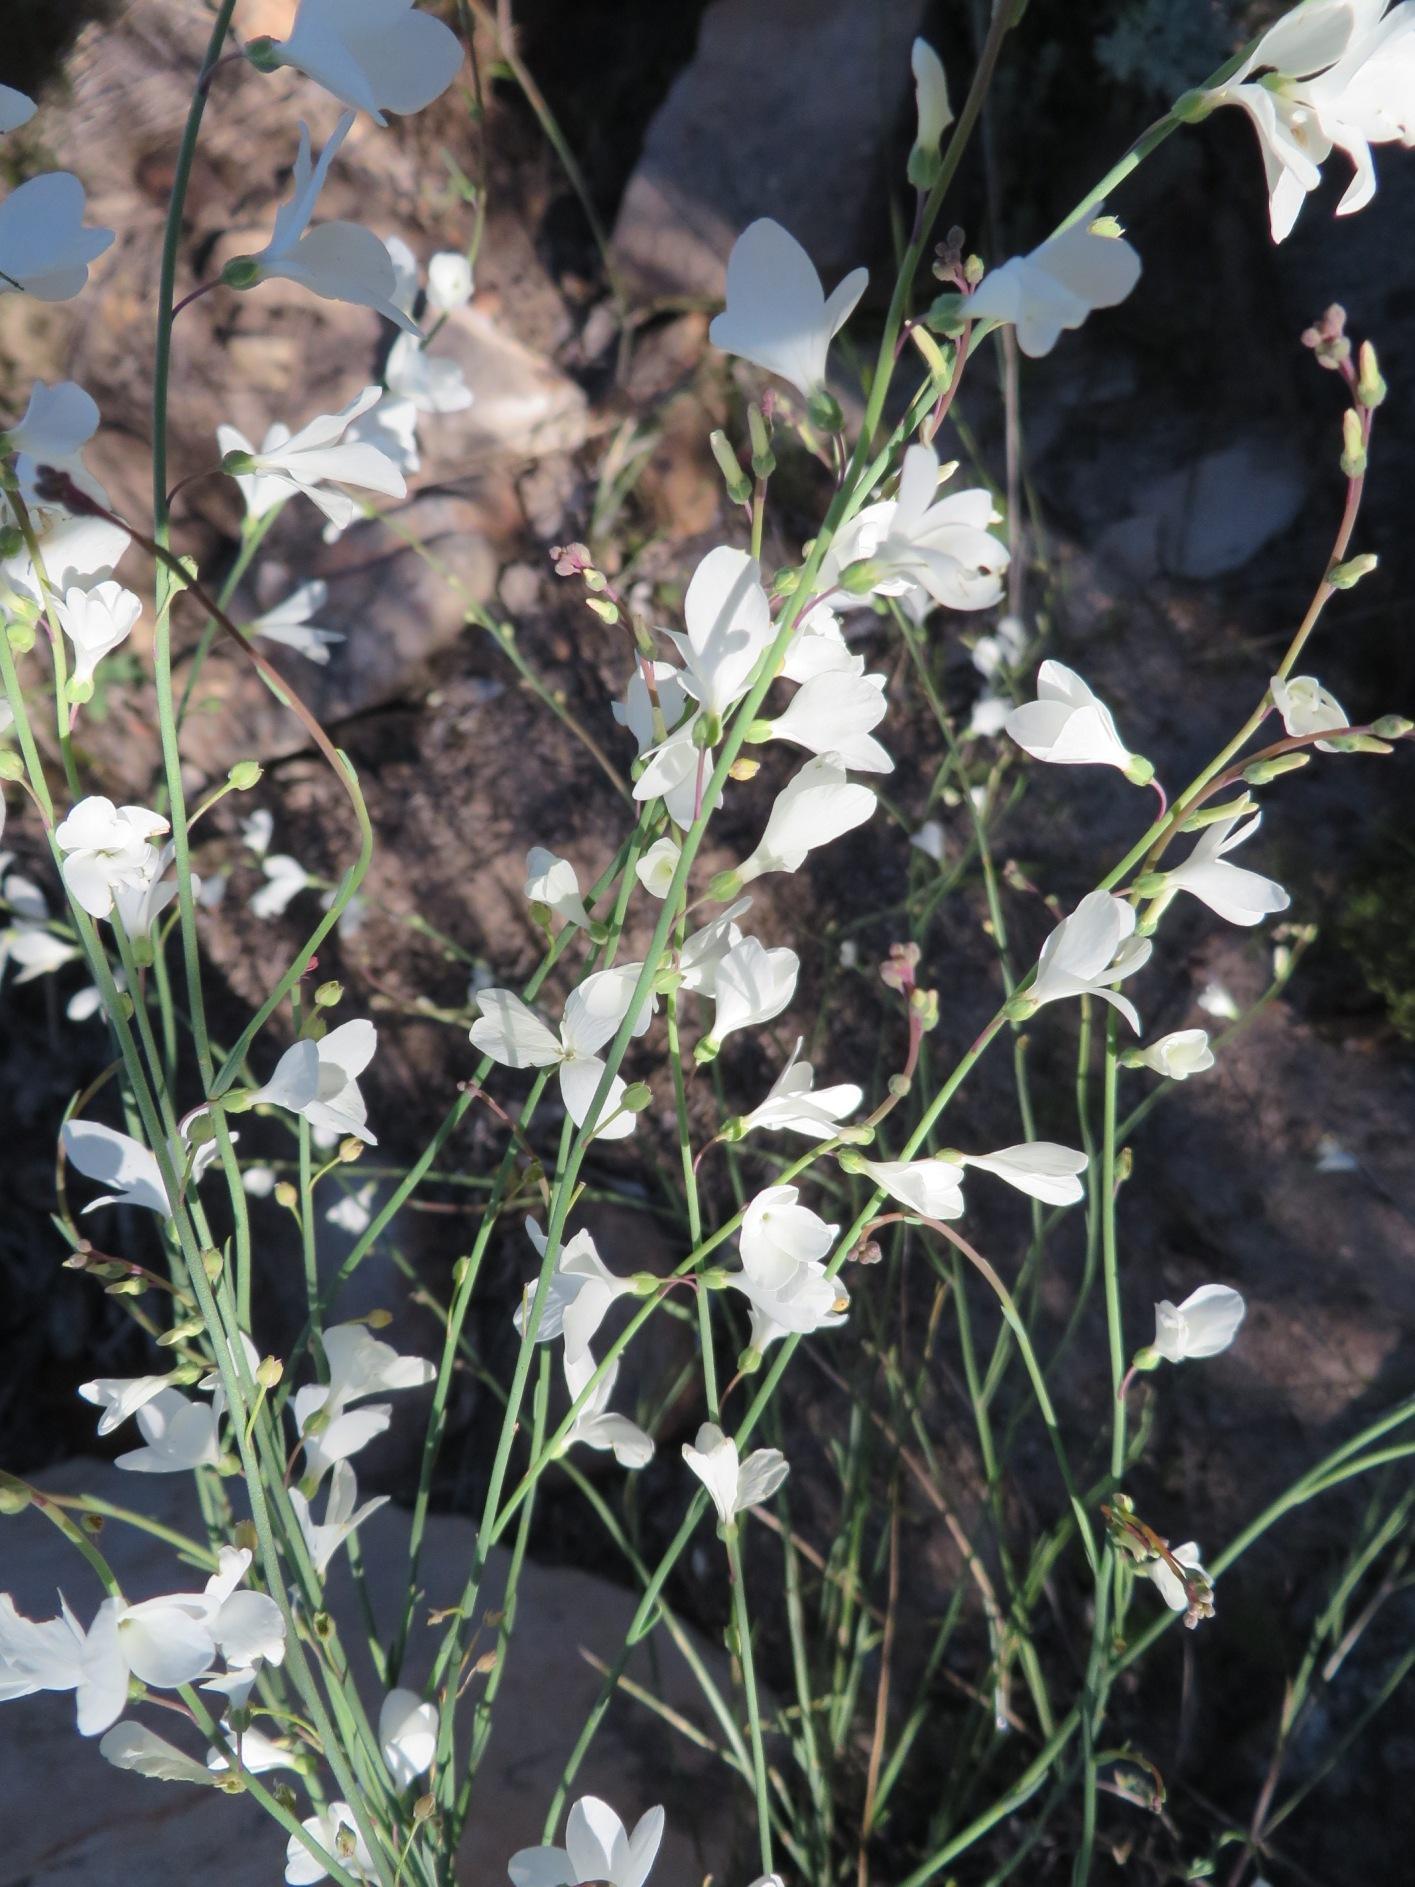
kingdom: Plantae
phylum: Tracheophyta
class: Magnoliopsida
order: Brassicales
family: Brassicaceae
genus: Heliophila
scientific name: Heliophila juncea
